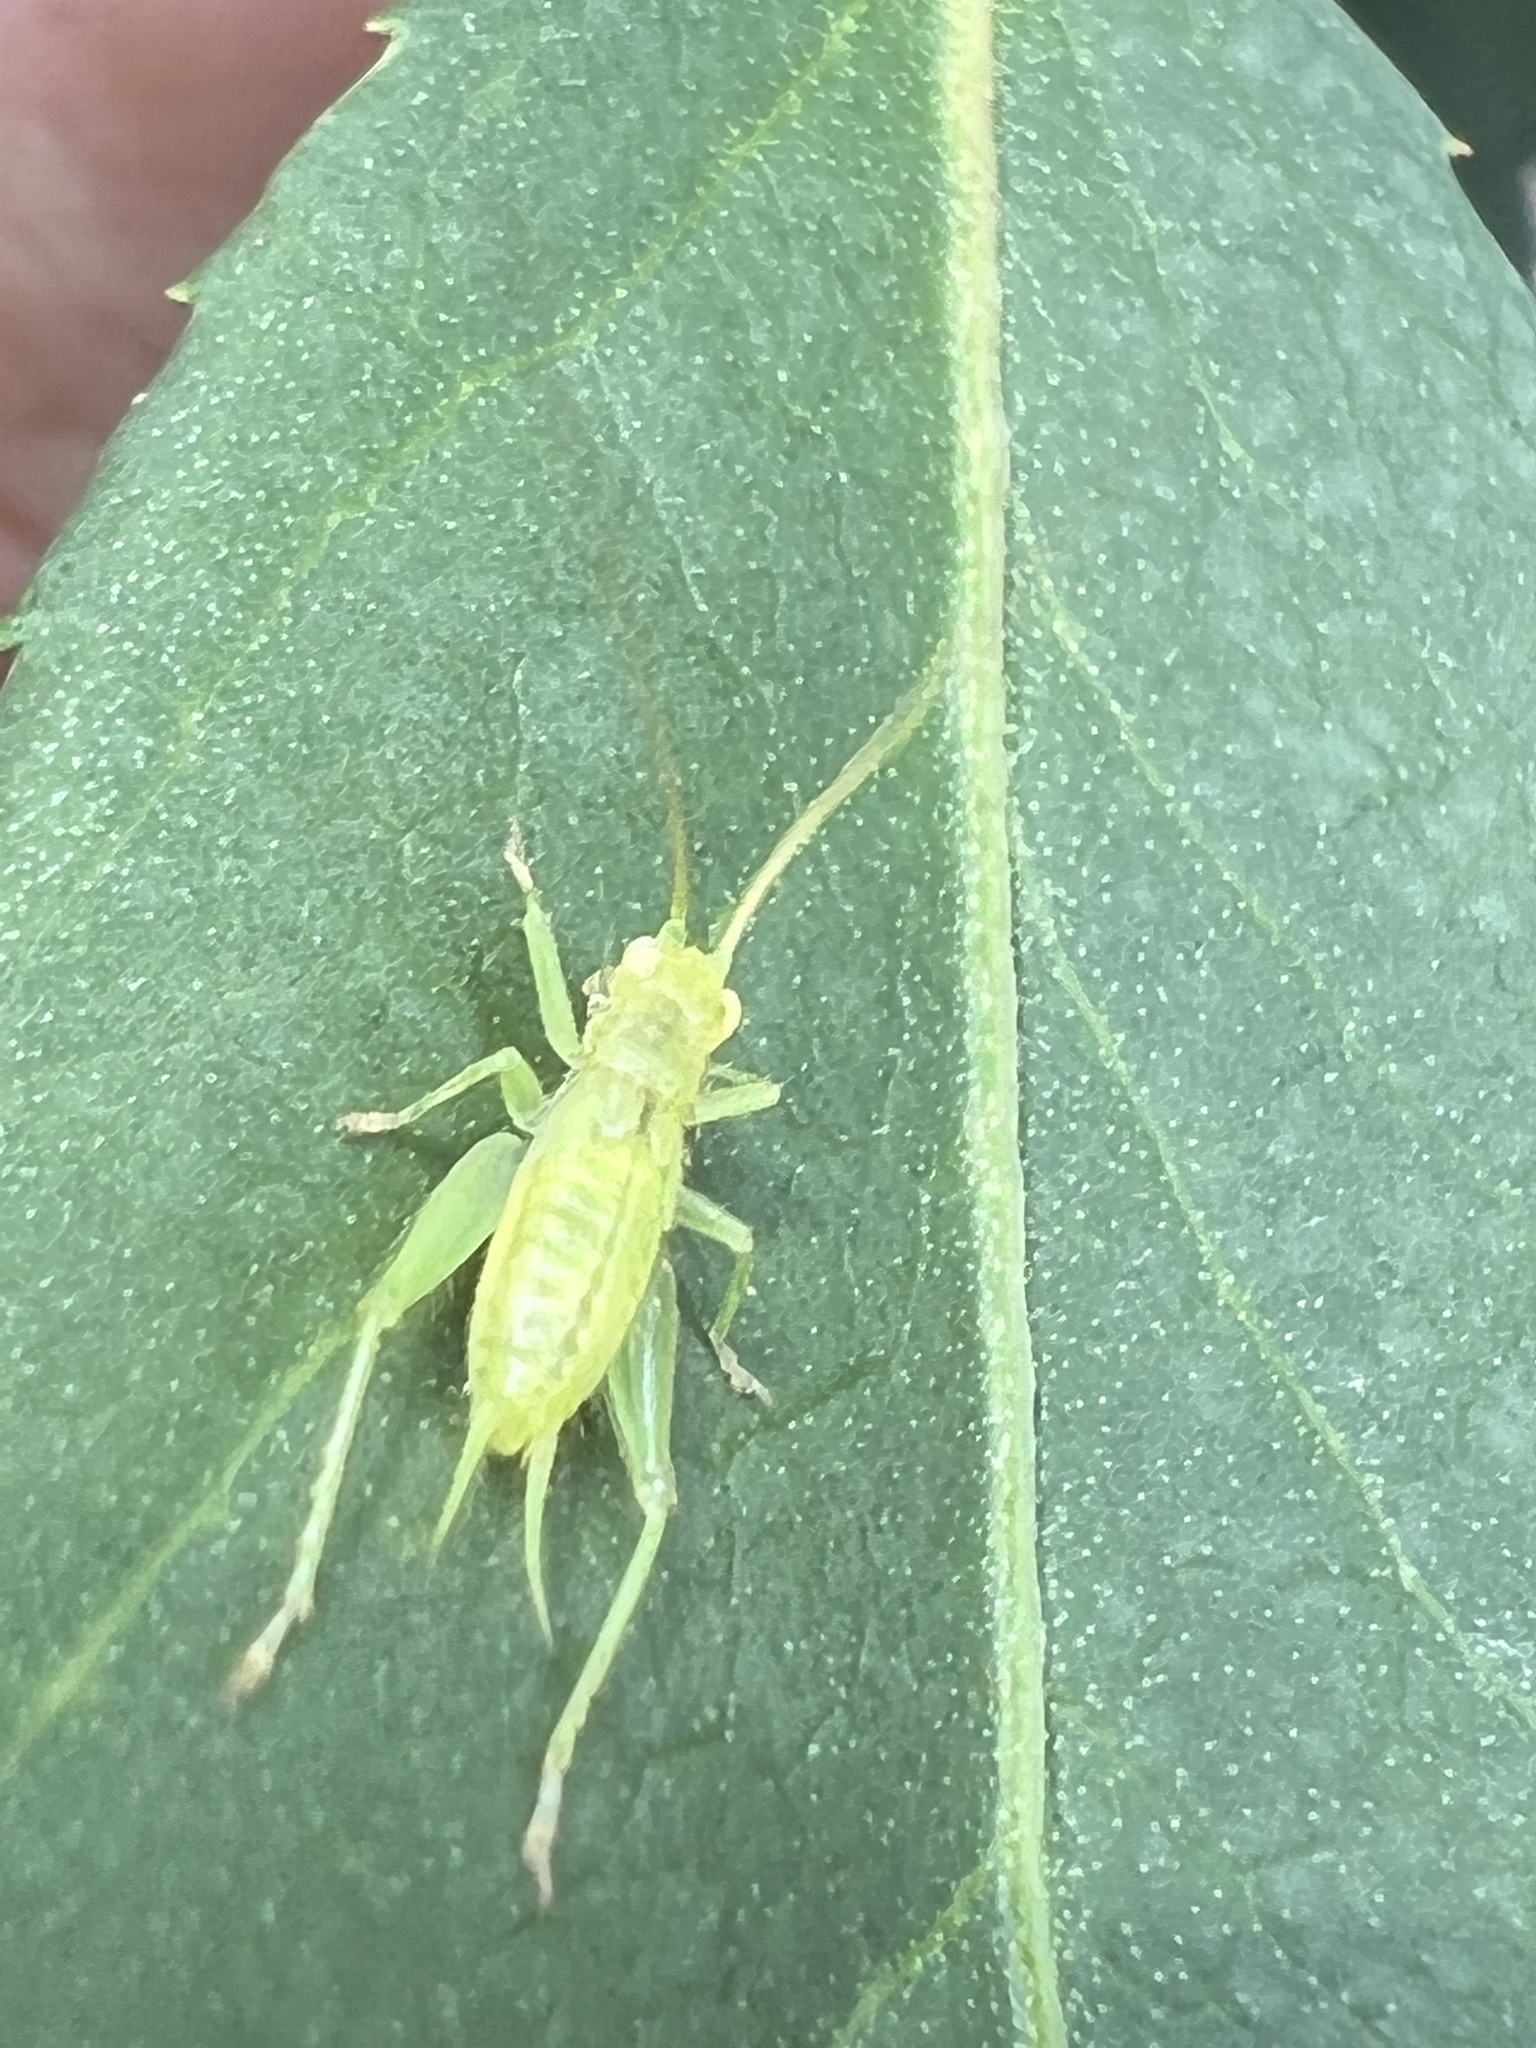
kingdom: Animalia
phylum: Arthropoda
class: Insecta
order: Orthoptera
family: Trigonidiidae
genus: Cyrtoxipha
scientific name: Cyrtoxipha columbiana
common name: Columbian trig
